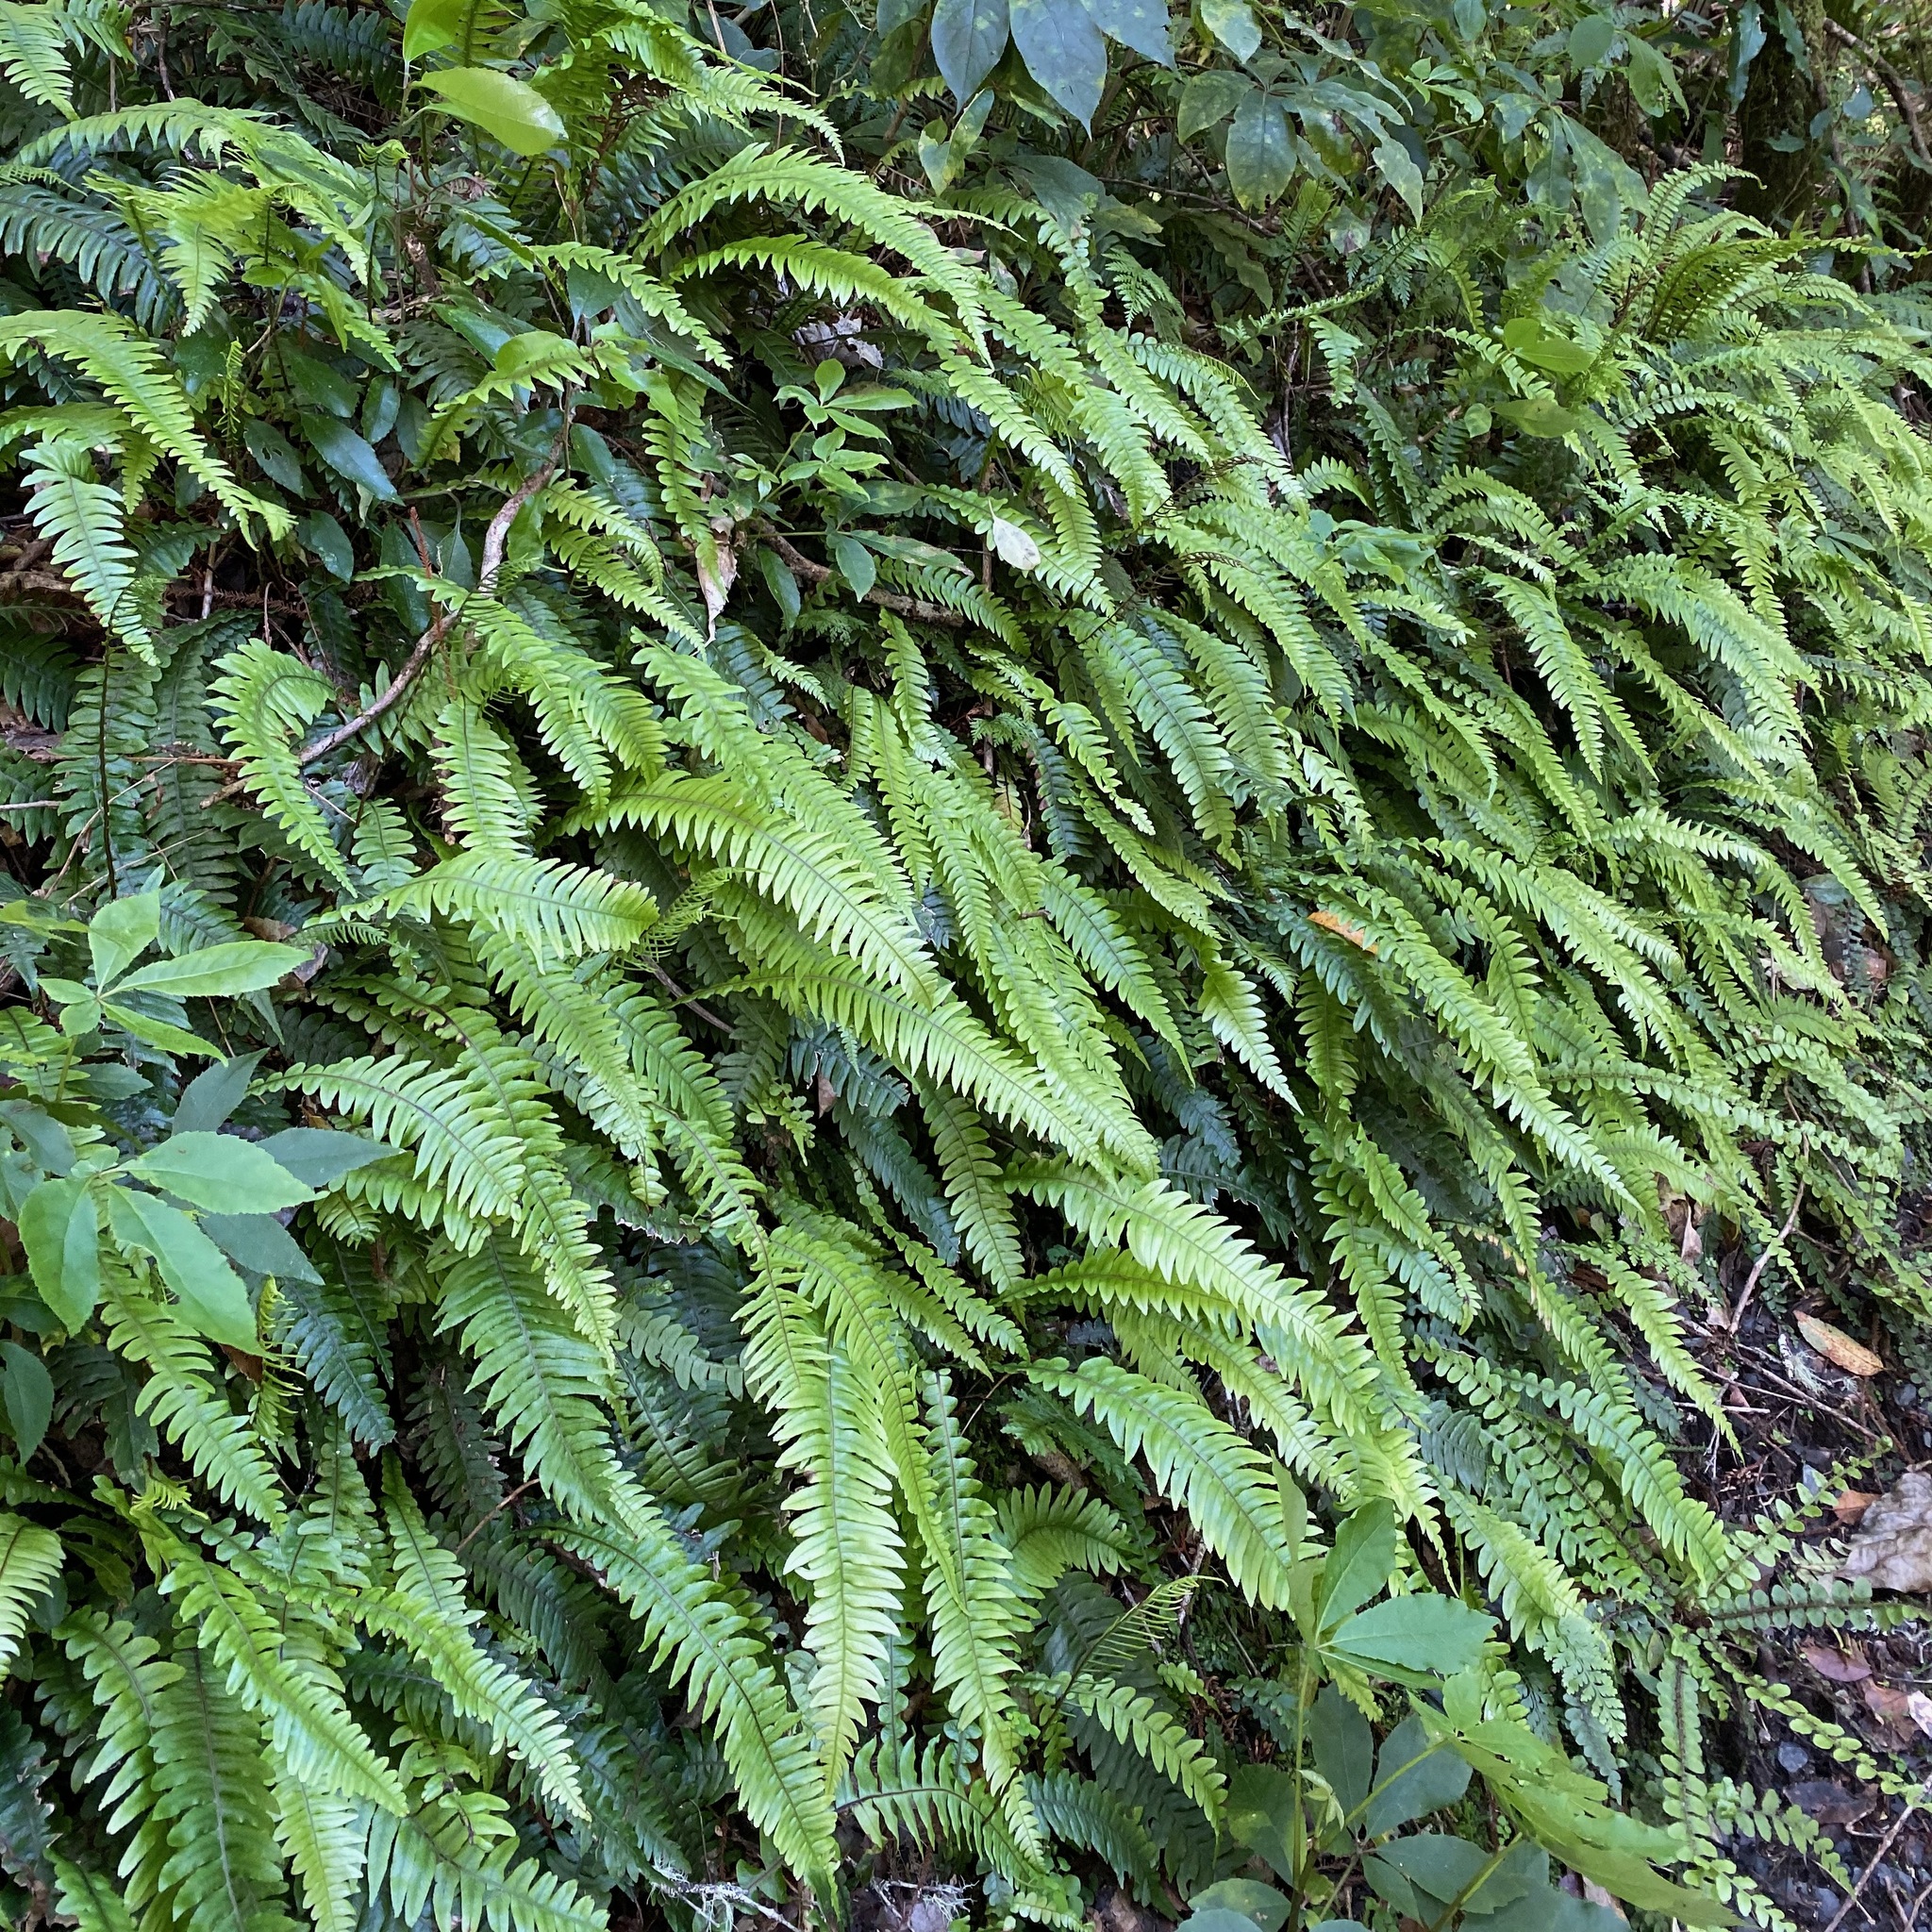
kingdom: Plantae
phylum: Tracheophyta
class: Polypodiopsida
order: Polypodiales
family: Blechnaceae
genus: Austroblechnum
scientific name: Austroblechnum lanceolatum
